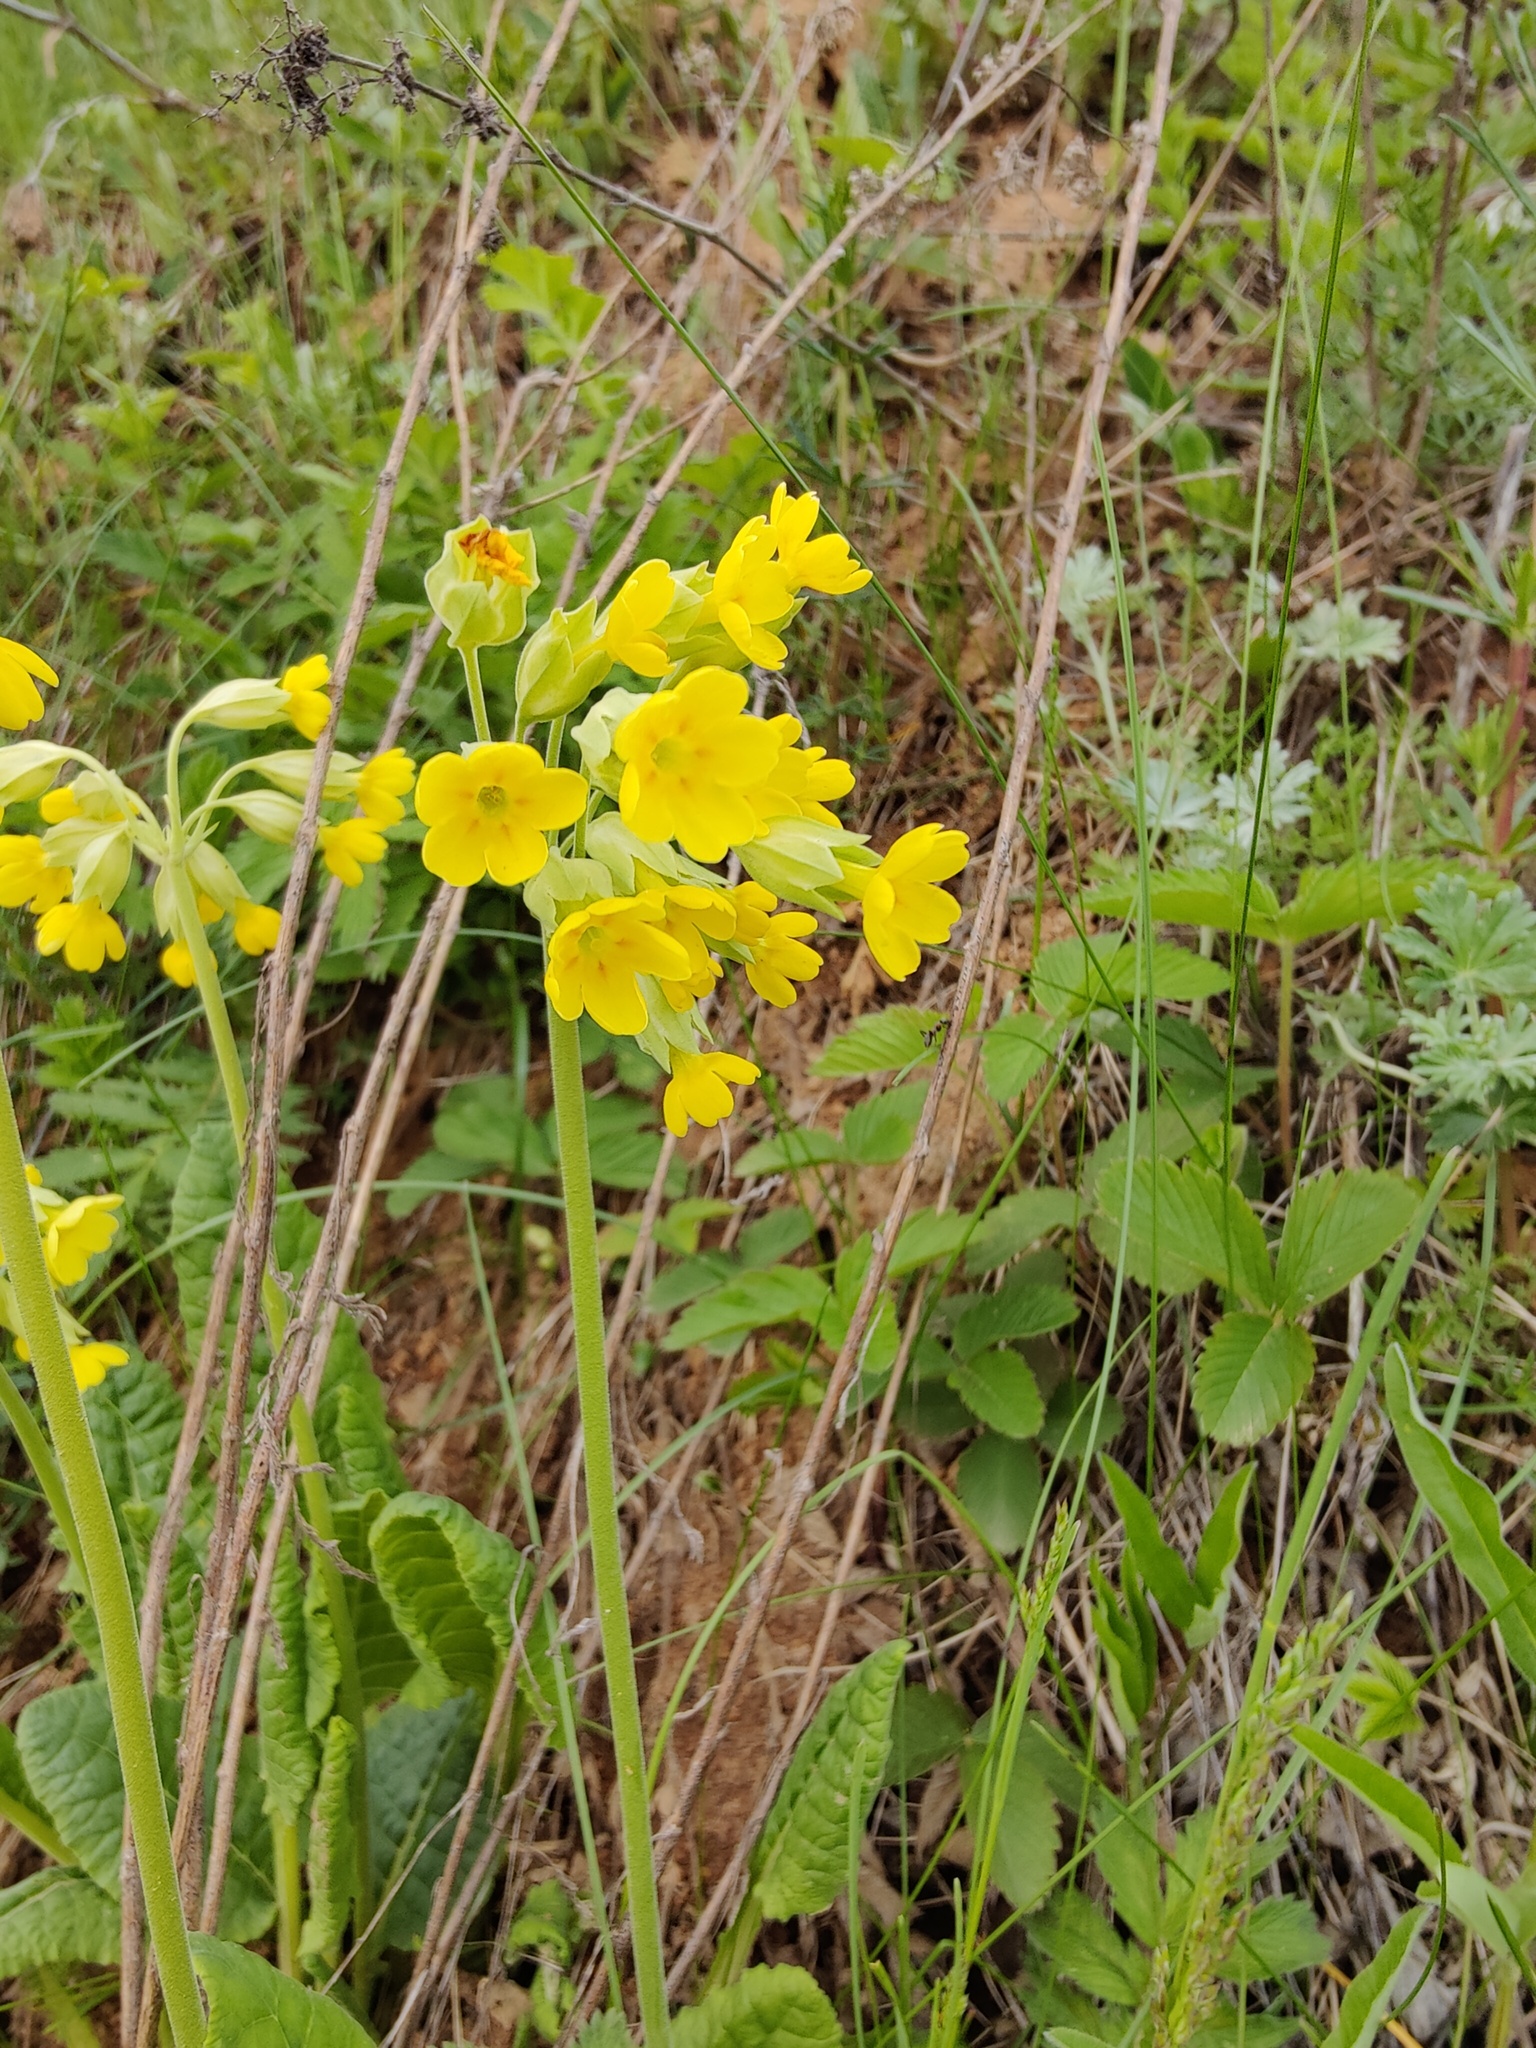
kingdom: Plantae
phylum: Tracheophyta
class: Magnoliopsida
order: Ericales
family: Primulaceae
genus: Primula
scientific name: Primula veris
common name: Cowslip
